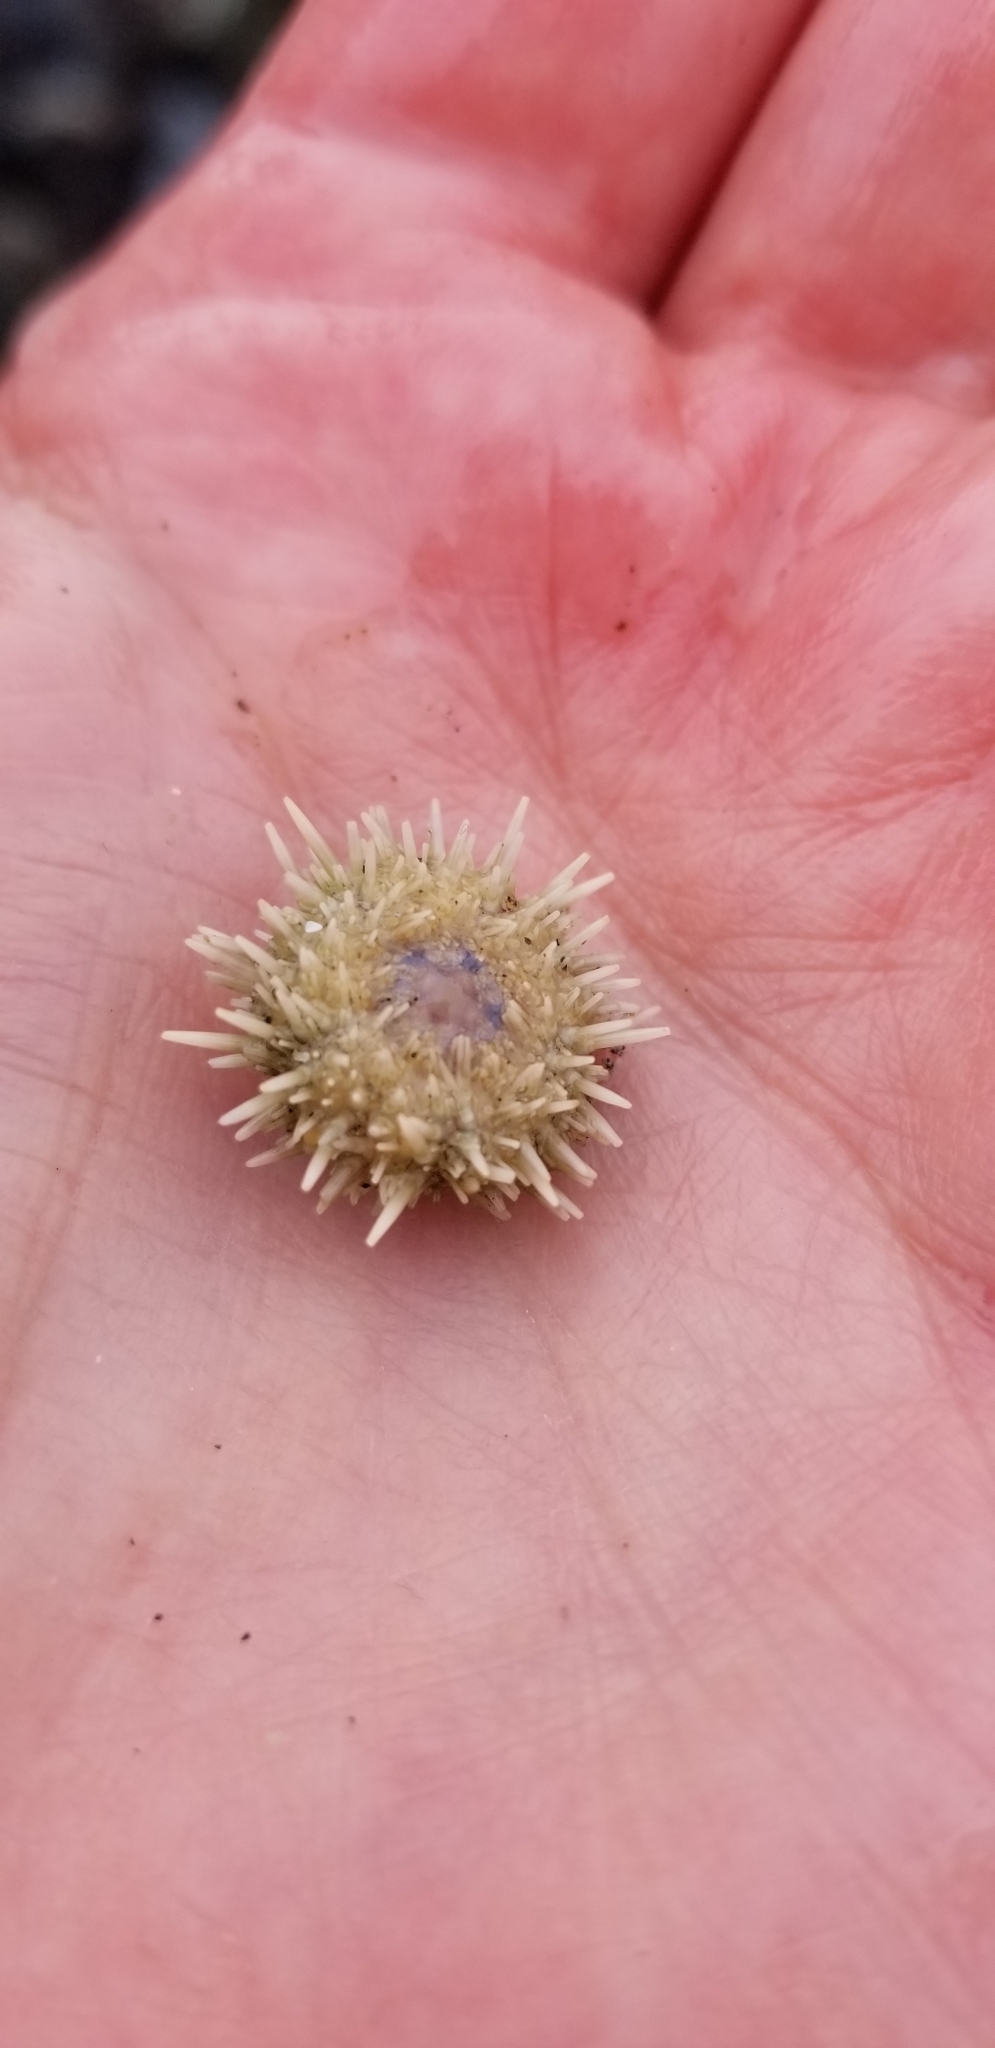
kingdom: Animalia
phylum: Echinodermata
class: Echinoidea
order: Camarodonta
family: Strongylocentrotidae
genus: Strongylocentrotus
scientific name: Strongylocentrotus purpuratus
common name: Purple sea urchin
